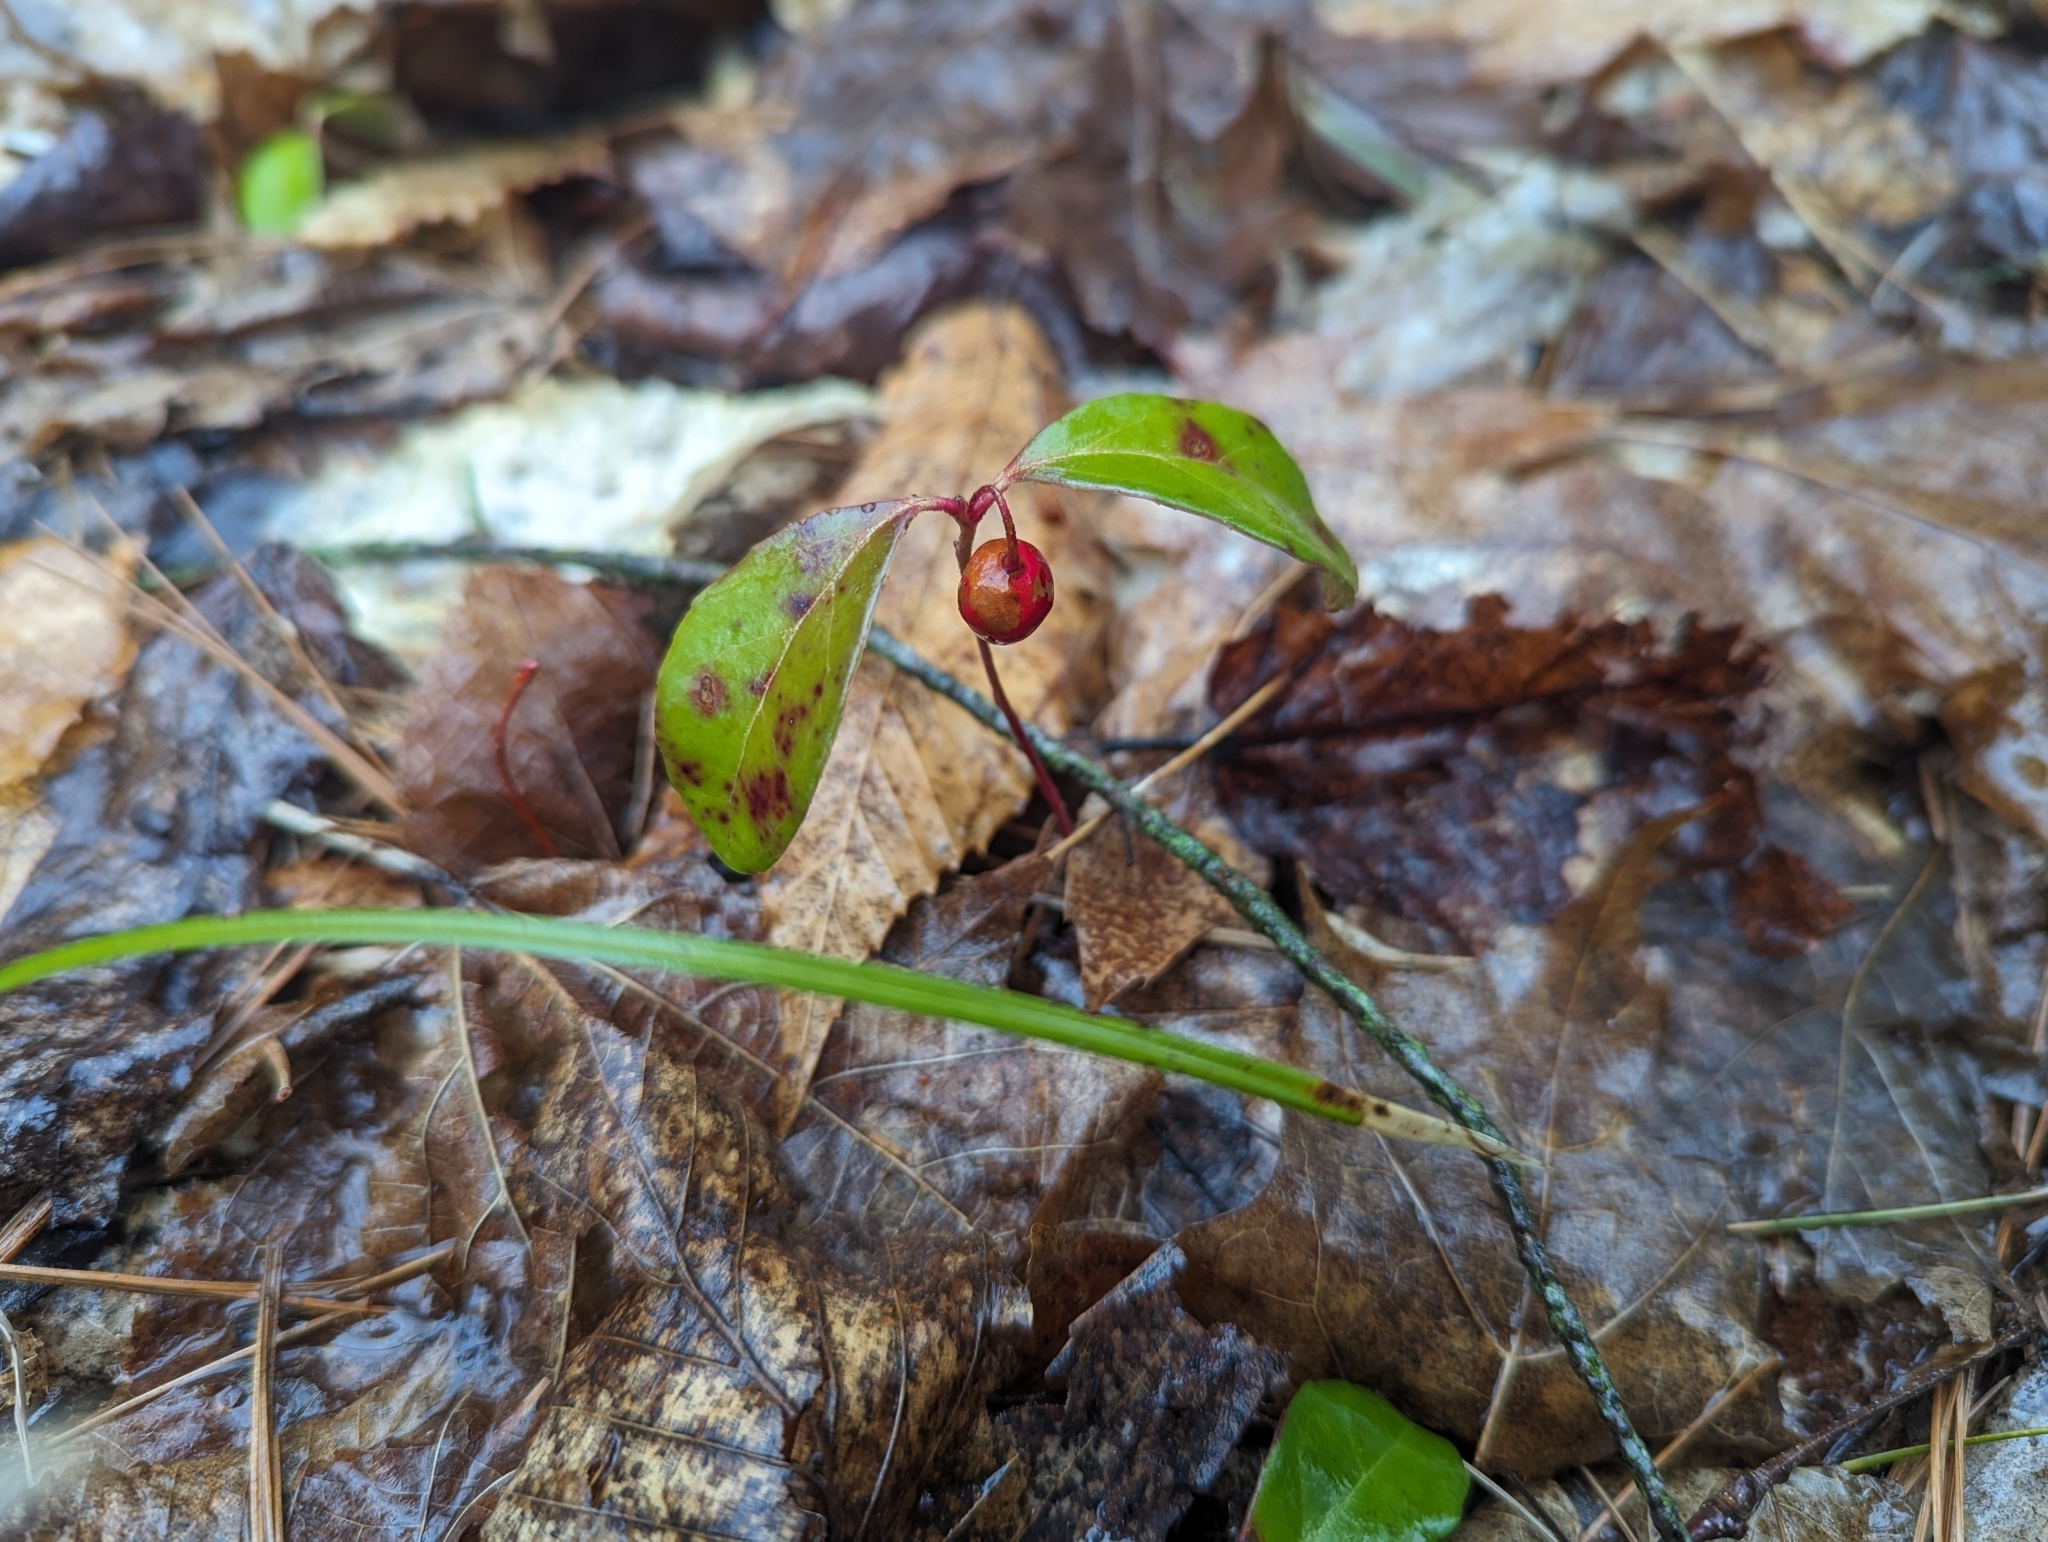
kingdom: Plantae
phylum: Tracheophyta
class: Magnoliopsida
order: Ericales
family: Ericaceae
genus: Gaultheria
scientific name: Gaultheria procumbens
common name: Checkerberry
